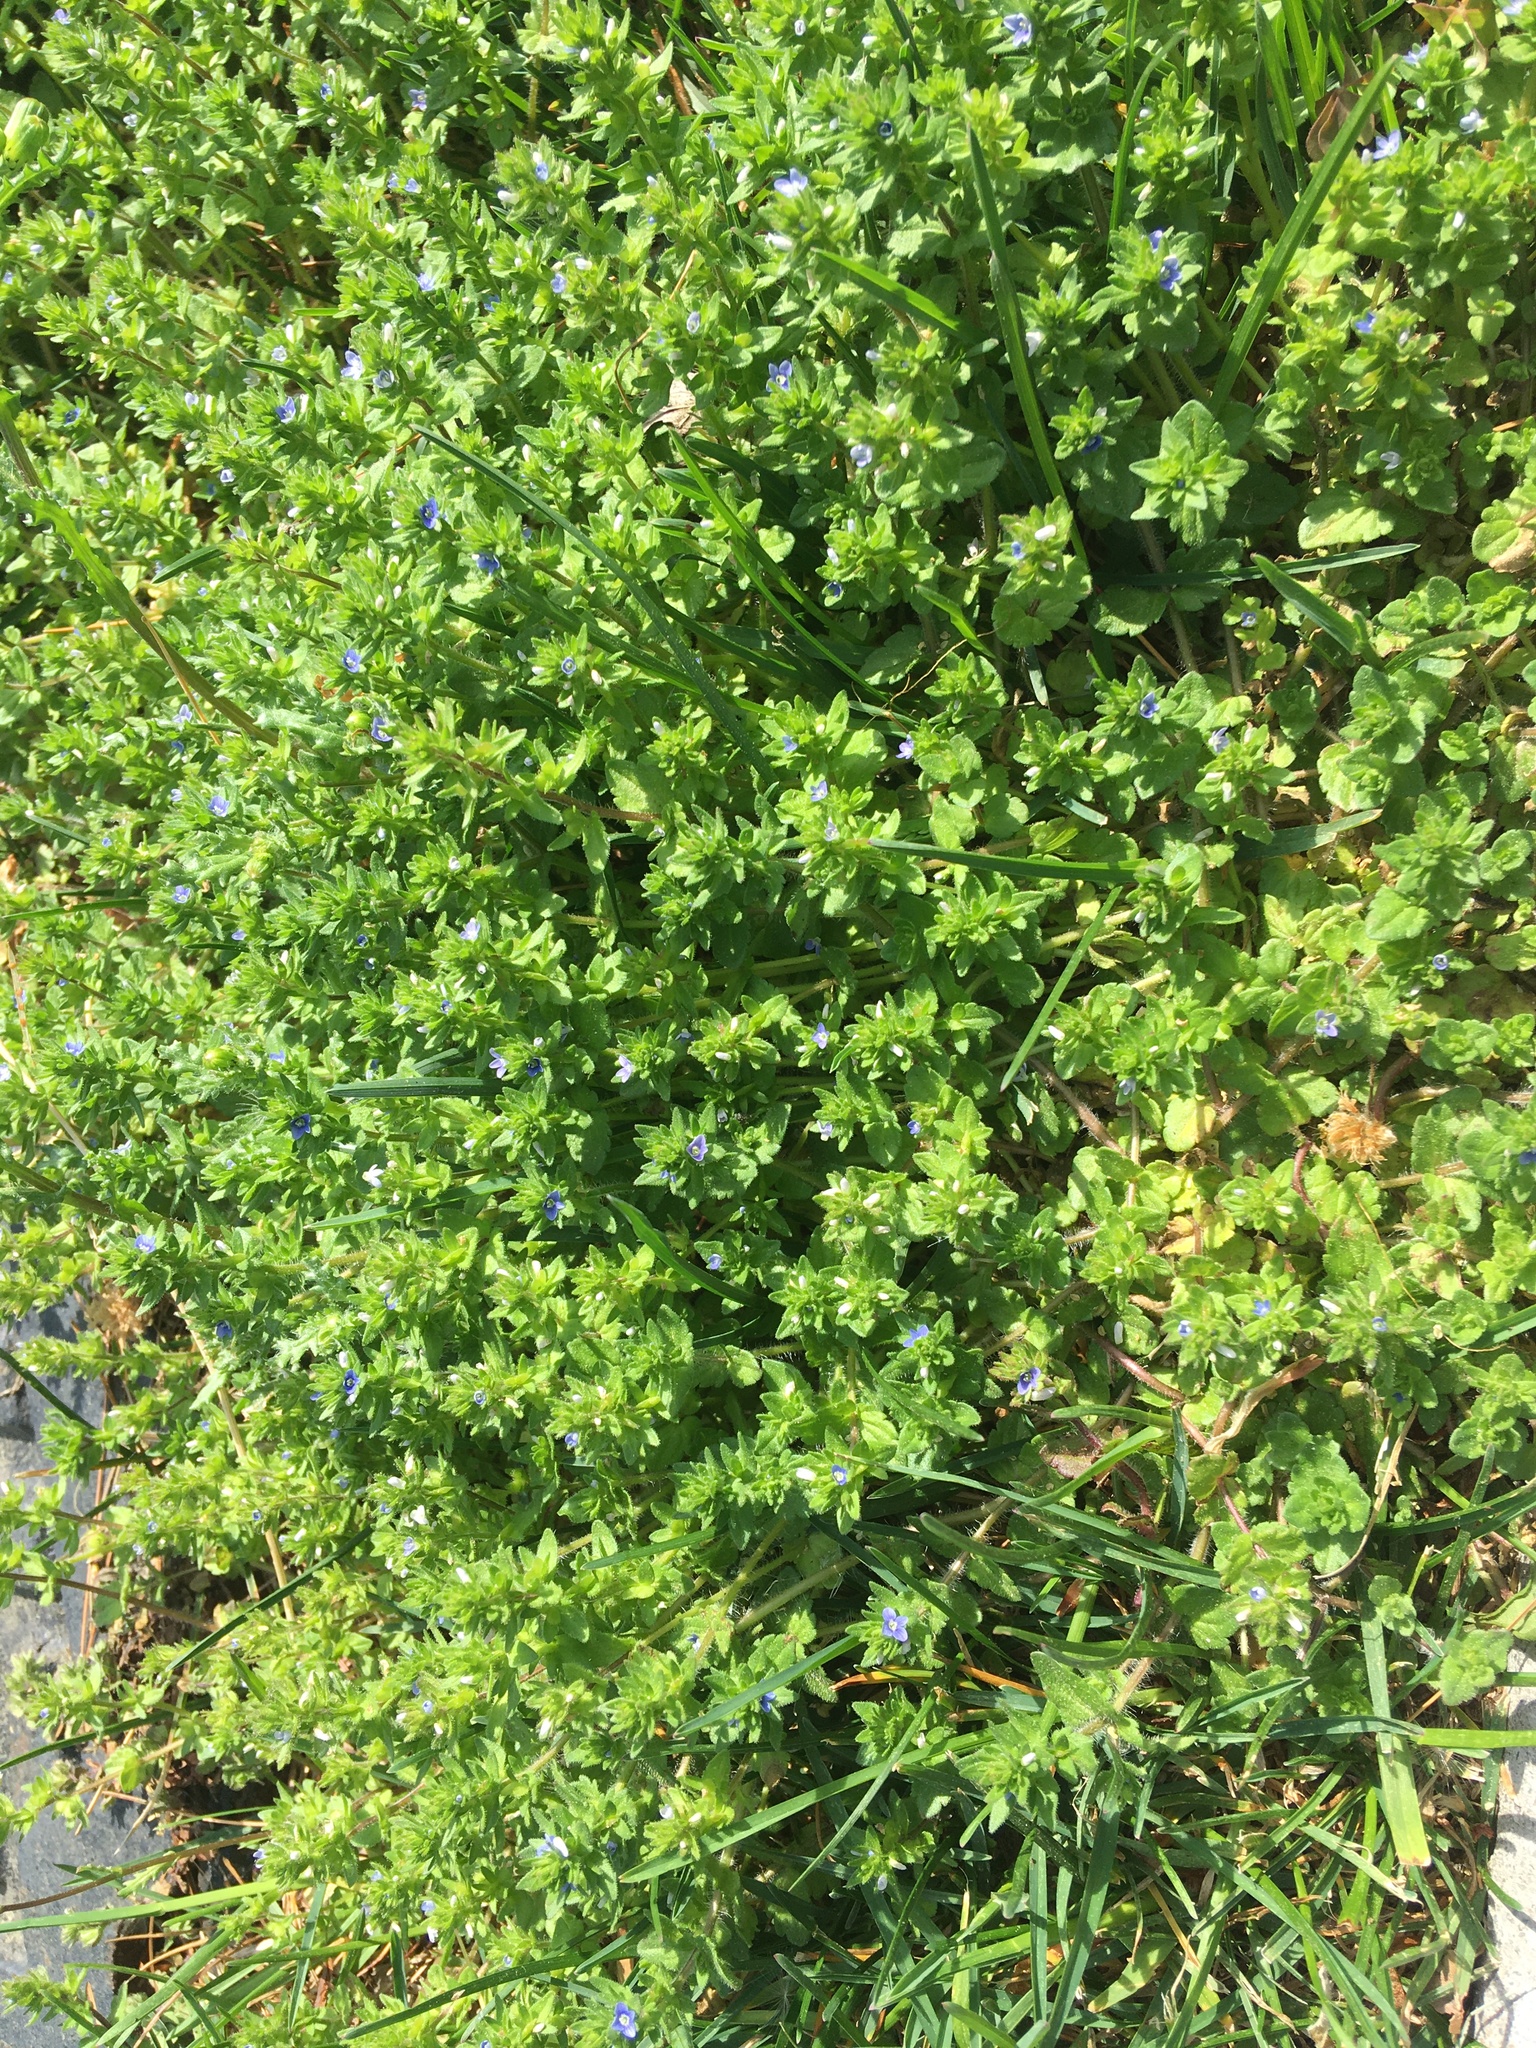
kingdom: Plantae
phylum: Tracheophyta
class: Magnoliopsida
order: Lamiales
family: Plantaginaceae
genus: Veronica
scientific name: Veronica arvensis
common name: Corn speedwell
